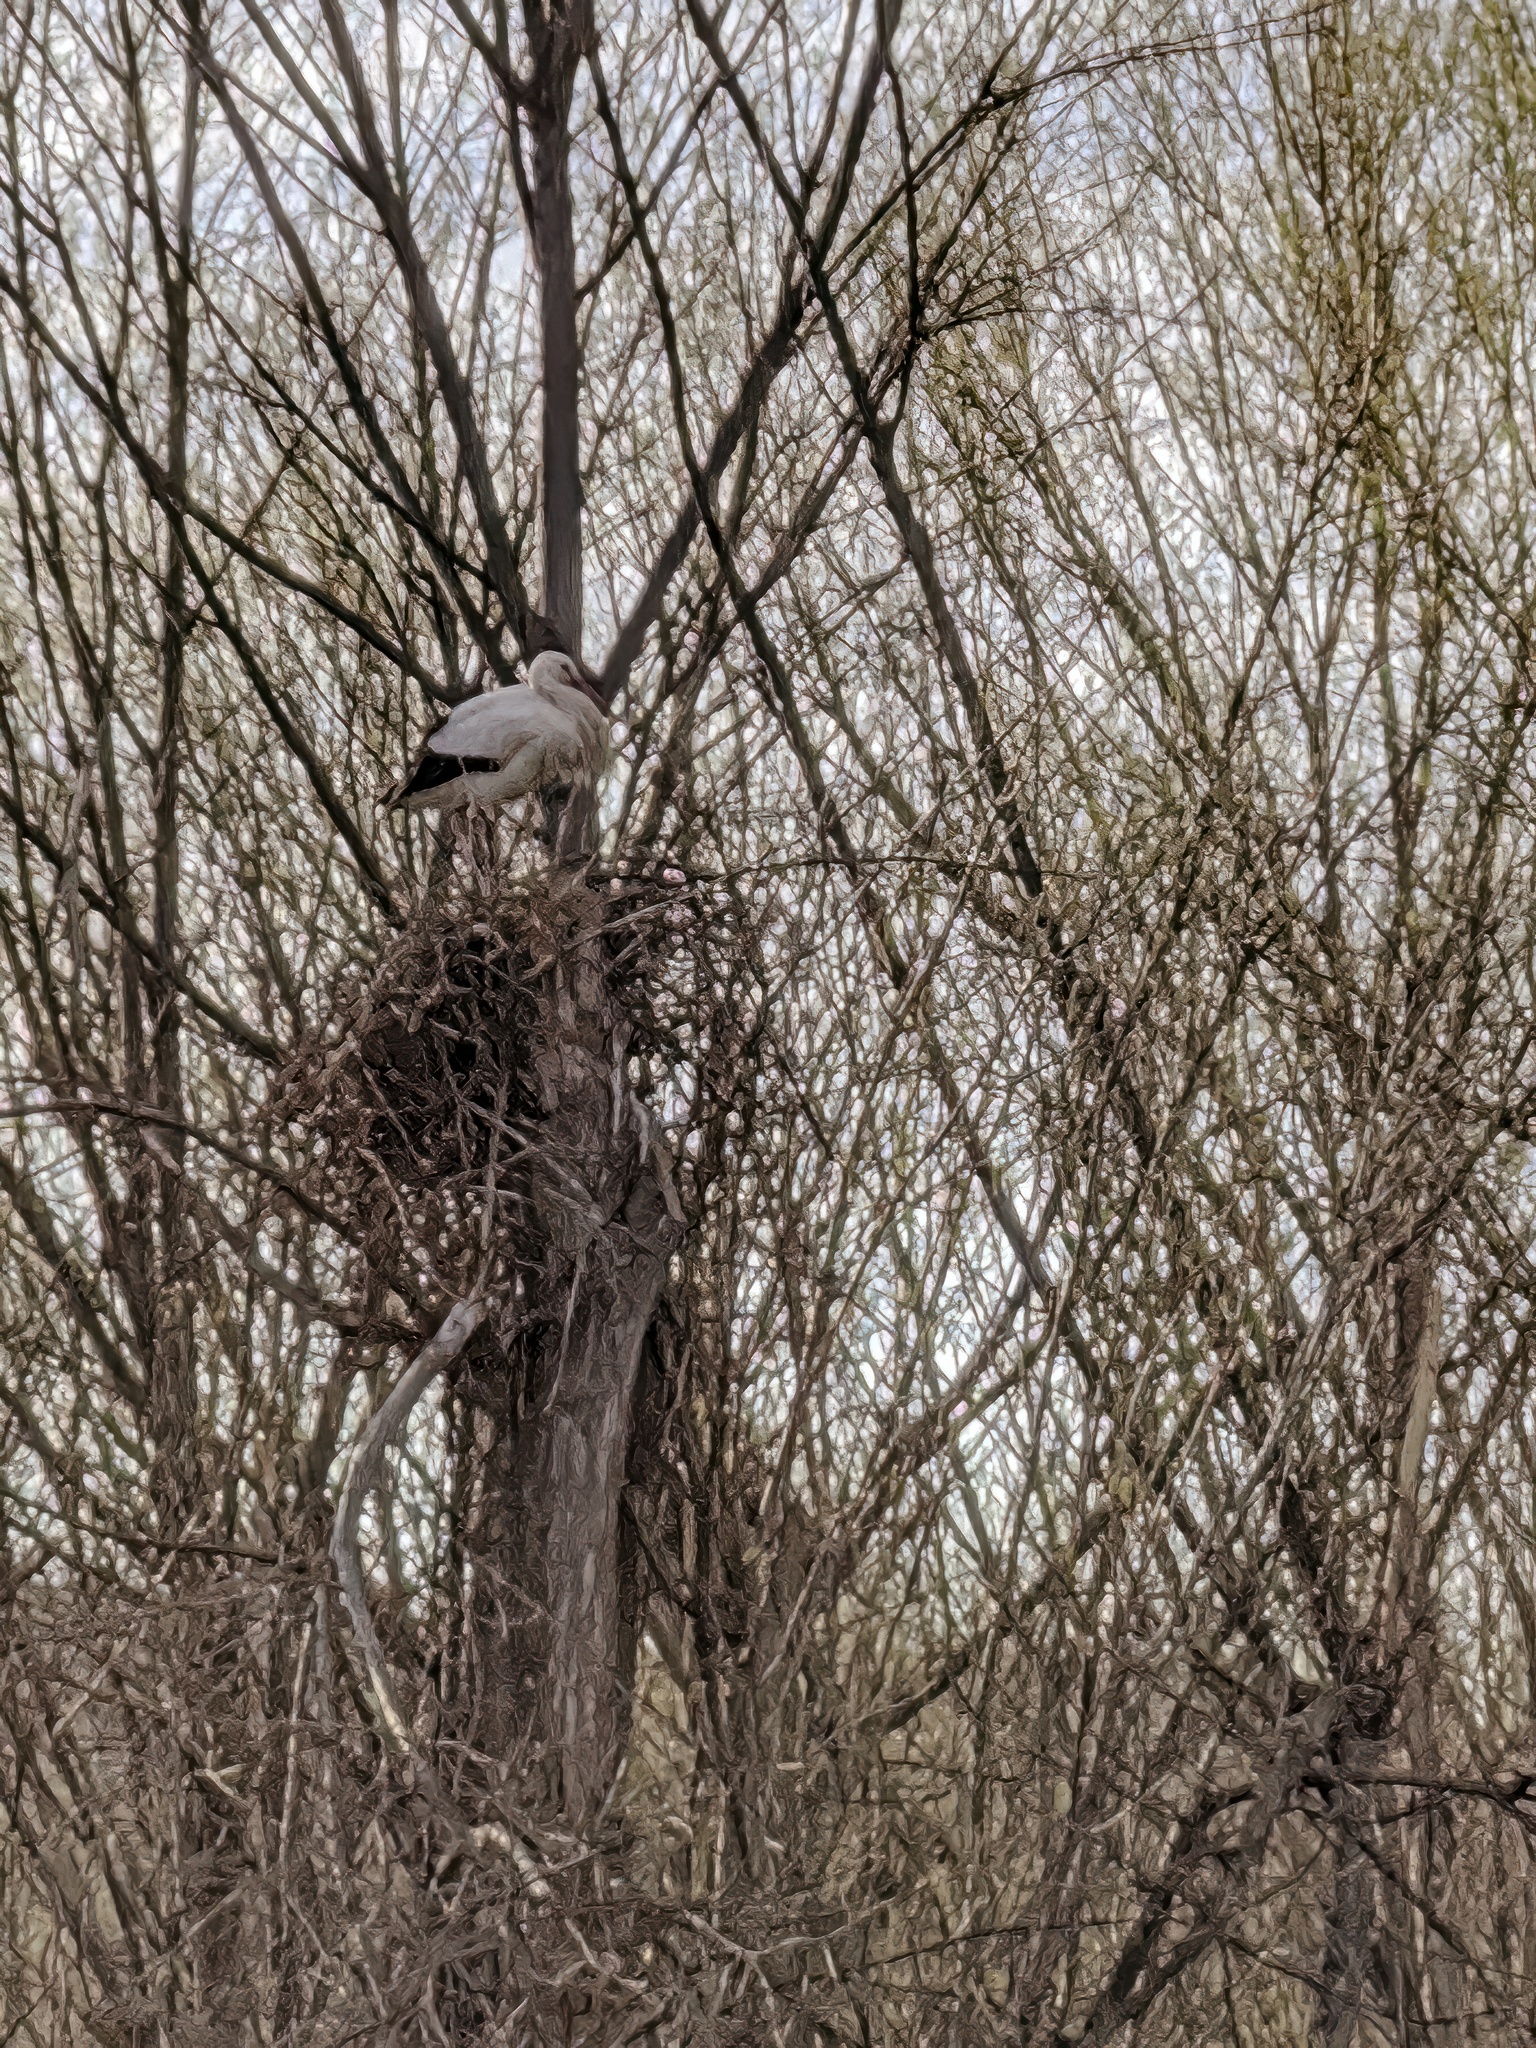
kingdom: Animalia
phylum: Chordata
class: Aves
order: Ciconiiformes
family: Ciconiidae
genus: Ciconia
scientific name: Ciconia ciconia
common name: White stork
